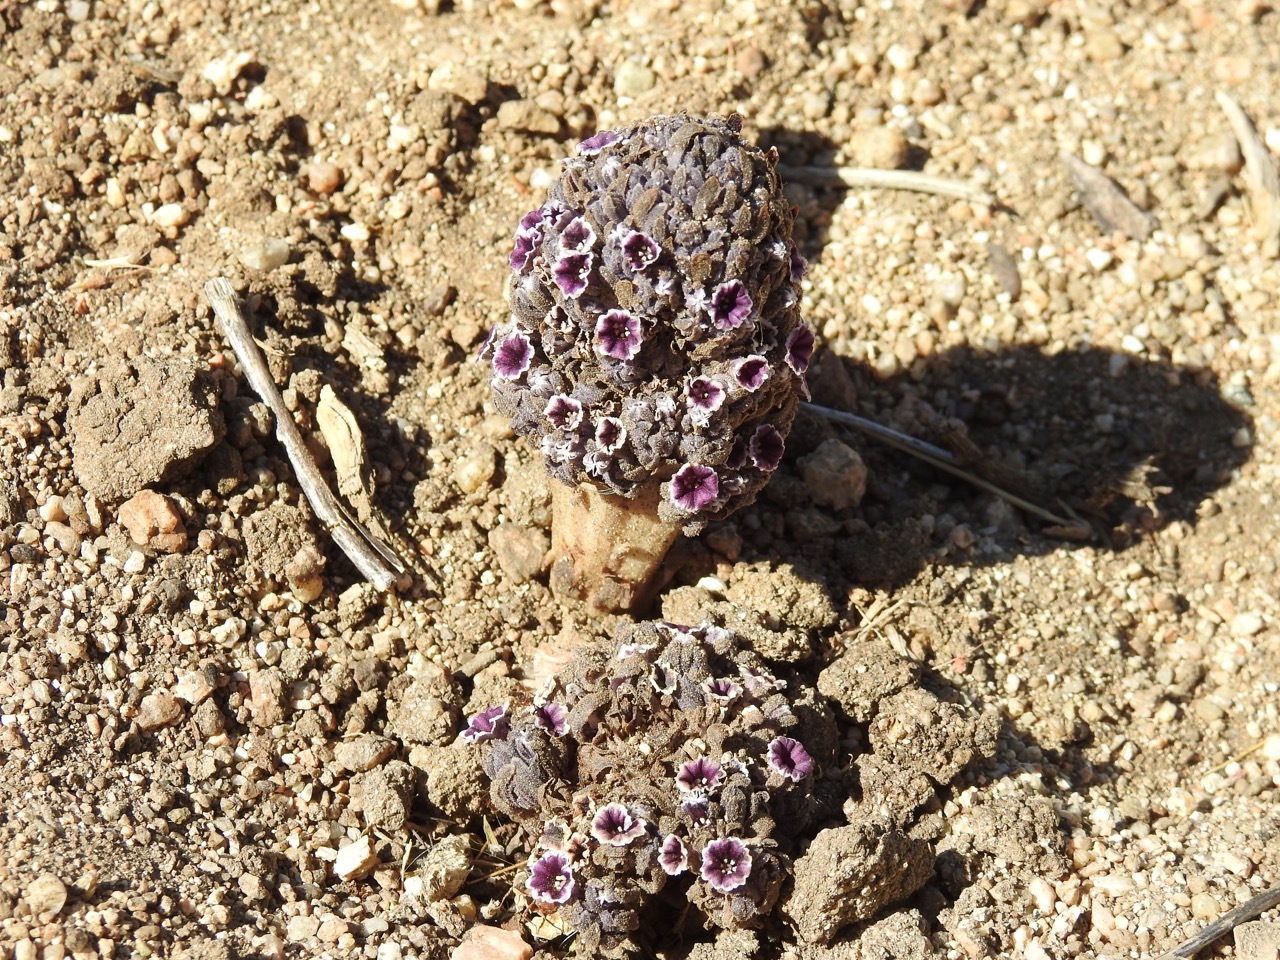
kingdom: Plantae
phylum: Tracheophyta
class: Magnoliopsida
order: Boraginales
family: Lennoaceae
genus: Pholisma
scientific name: Pholisma arenarium
